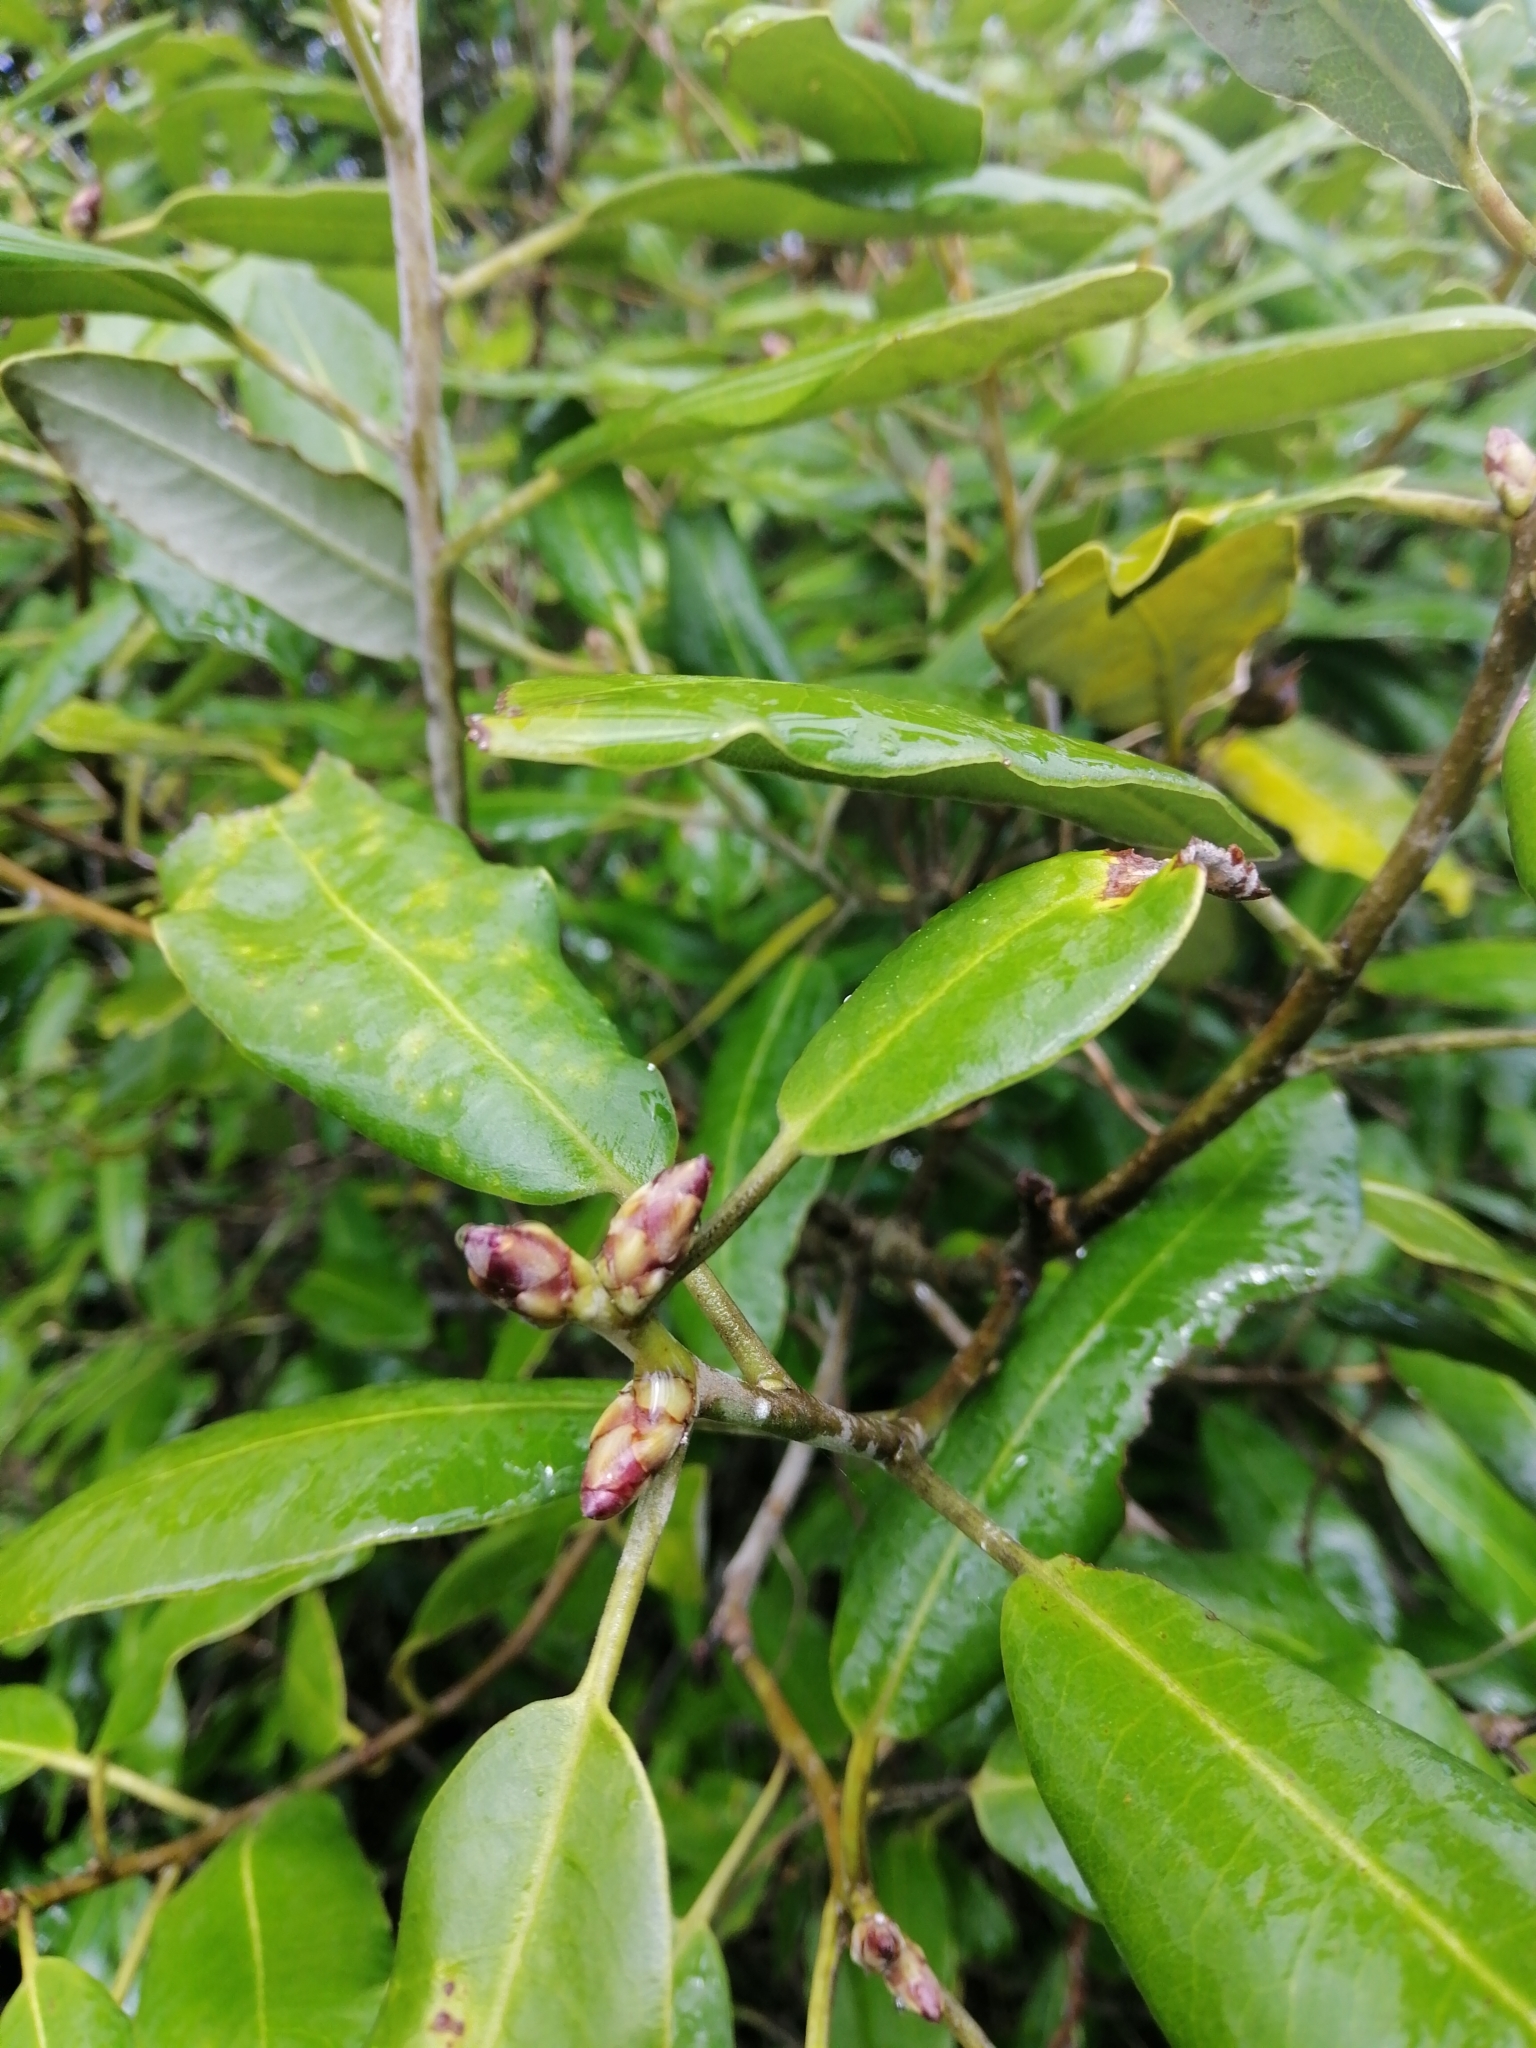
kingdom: Plantae
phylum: Tracheophyta
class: Magnoliopsida
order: Apiales
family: Pittosporaceae
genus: Pittosporum
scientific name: Pittosporum ralphii
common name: Ralph's desertwillow
